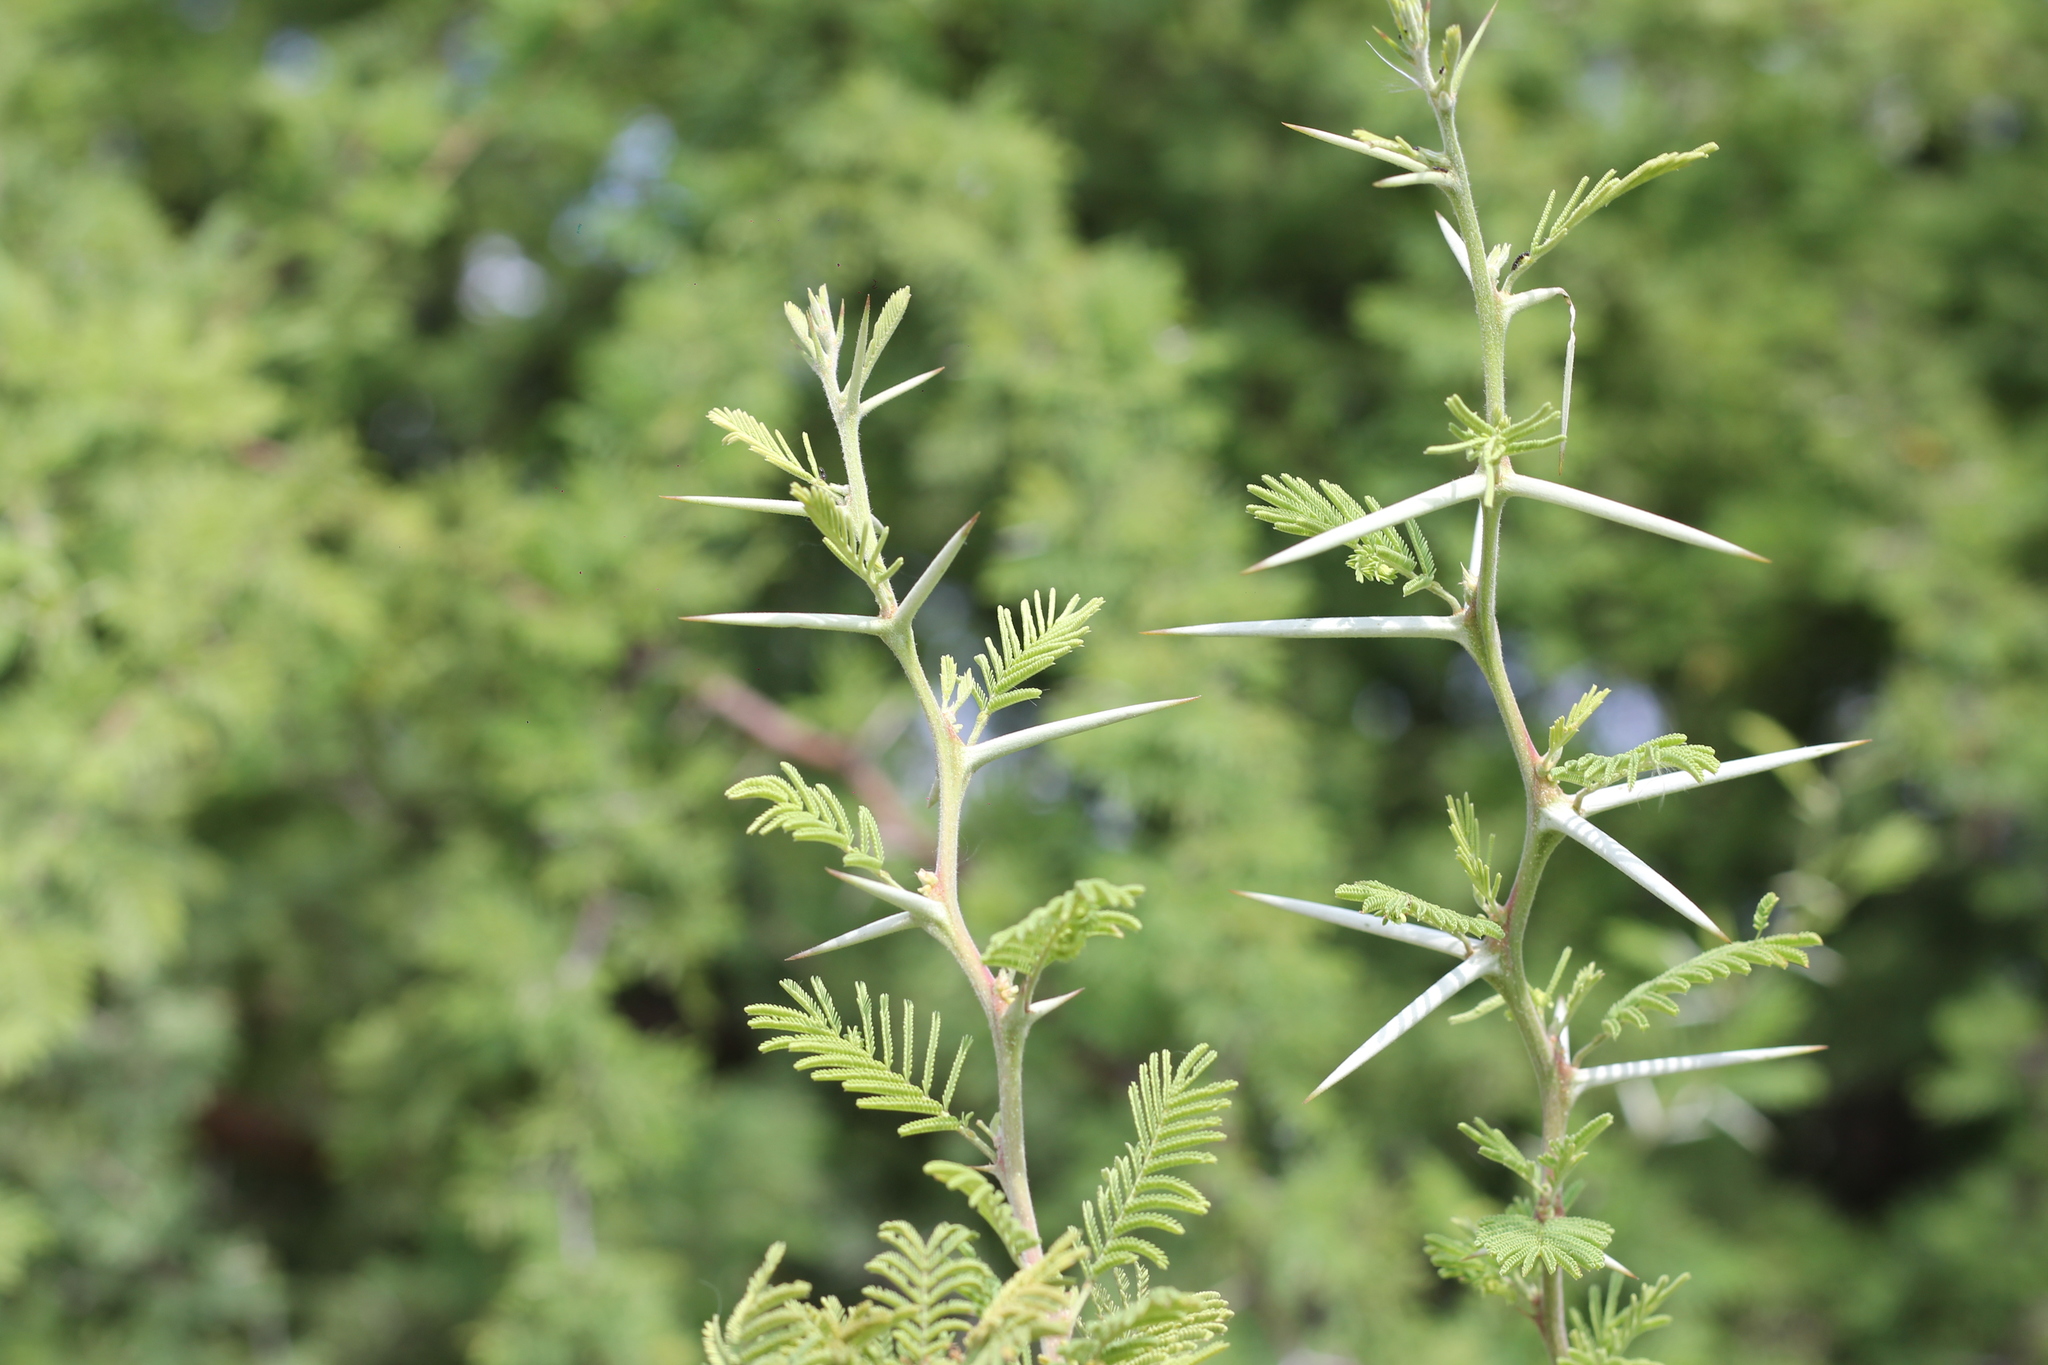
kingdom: Plantae
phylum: Tracheophyta
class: Magnoliopsida
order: Fabales
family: Fabaceae
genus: Vachellia
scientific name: Vachellia caven
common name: Roman cassie
